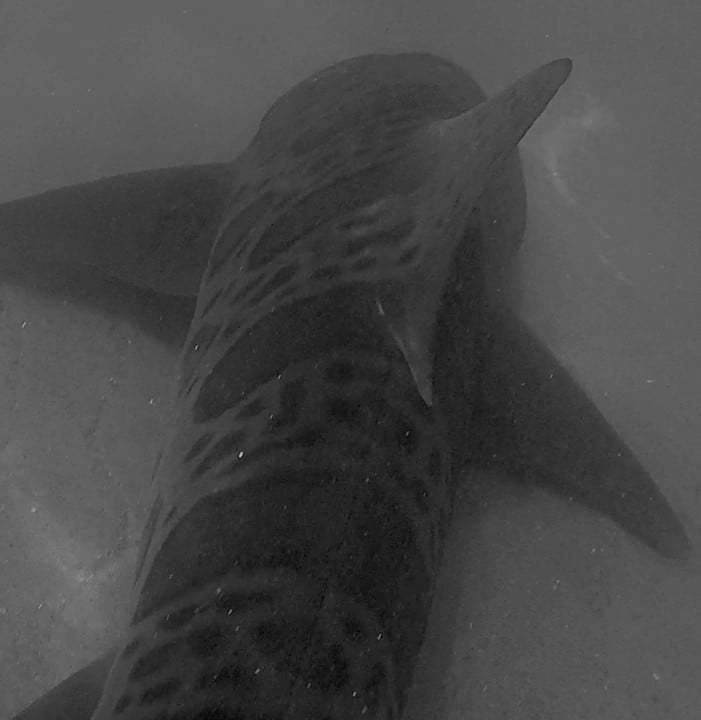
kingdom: Animalia
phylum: Chordata
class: Elasmobranchii
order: Carcharhiniformes
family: Triakidae
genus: Triakis
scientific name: Triakis semifasciata
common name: Leopard shark
